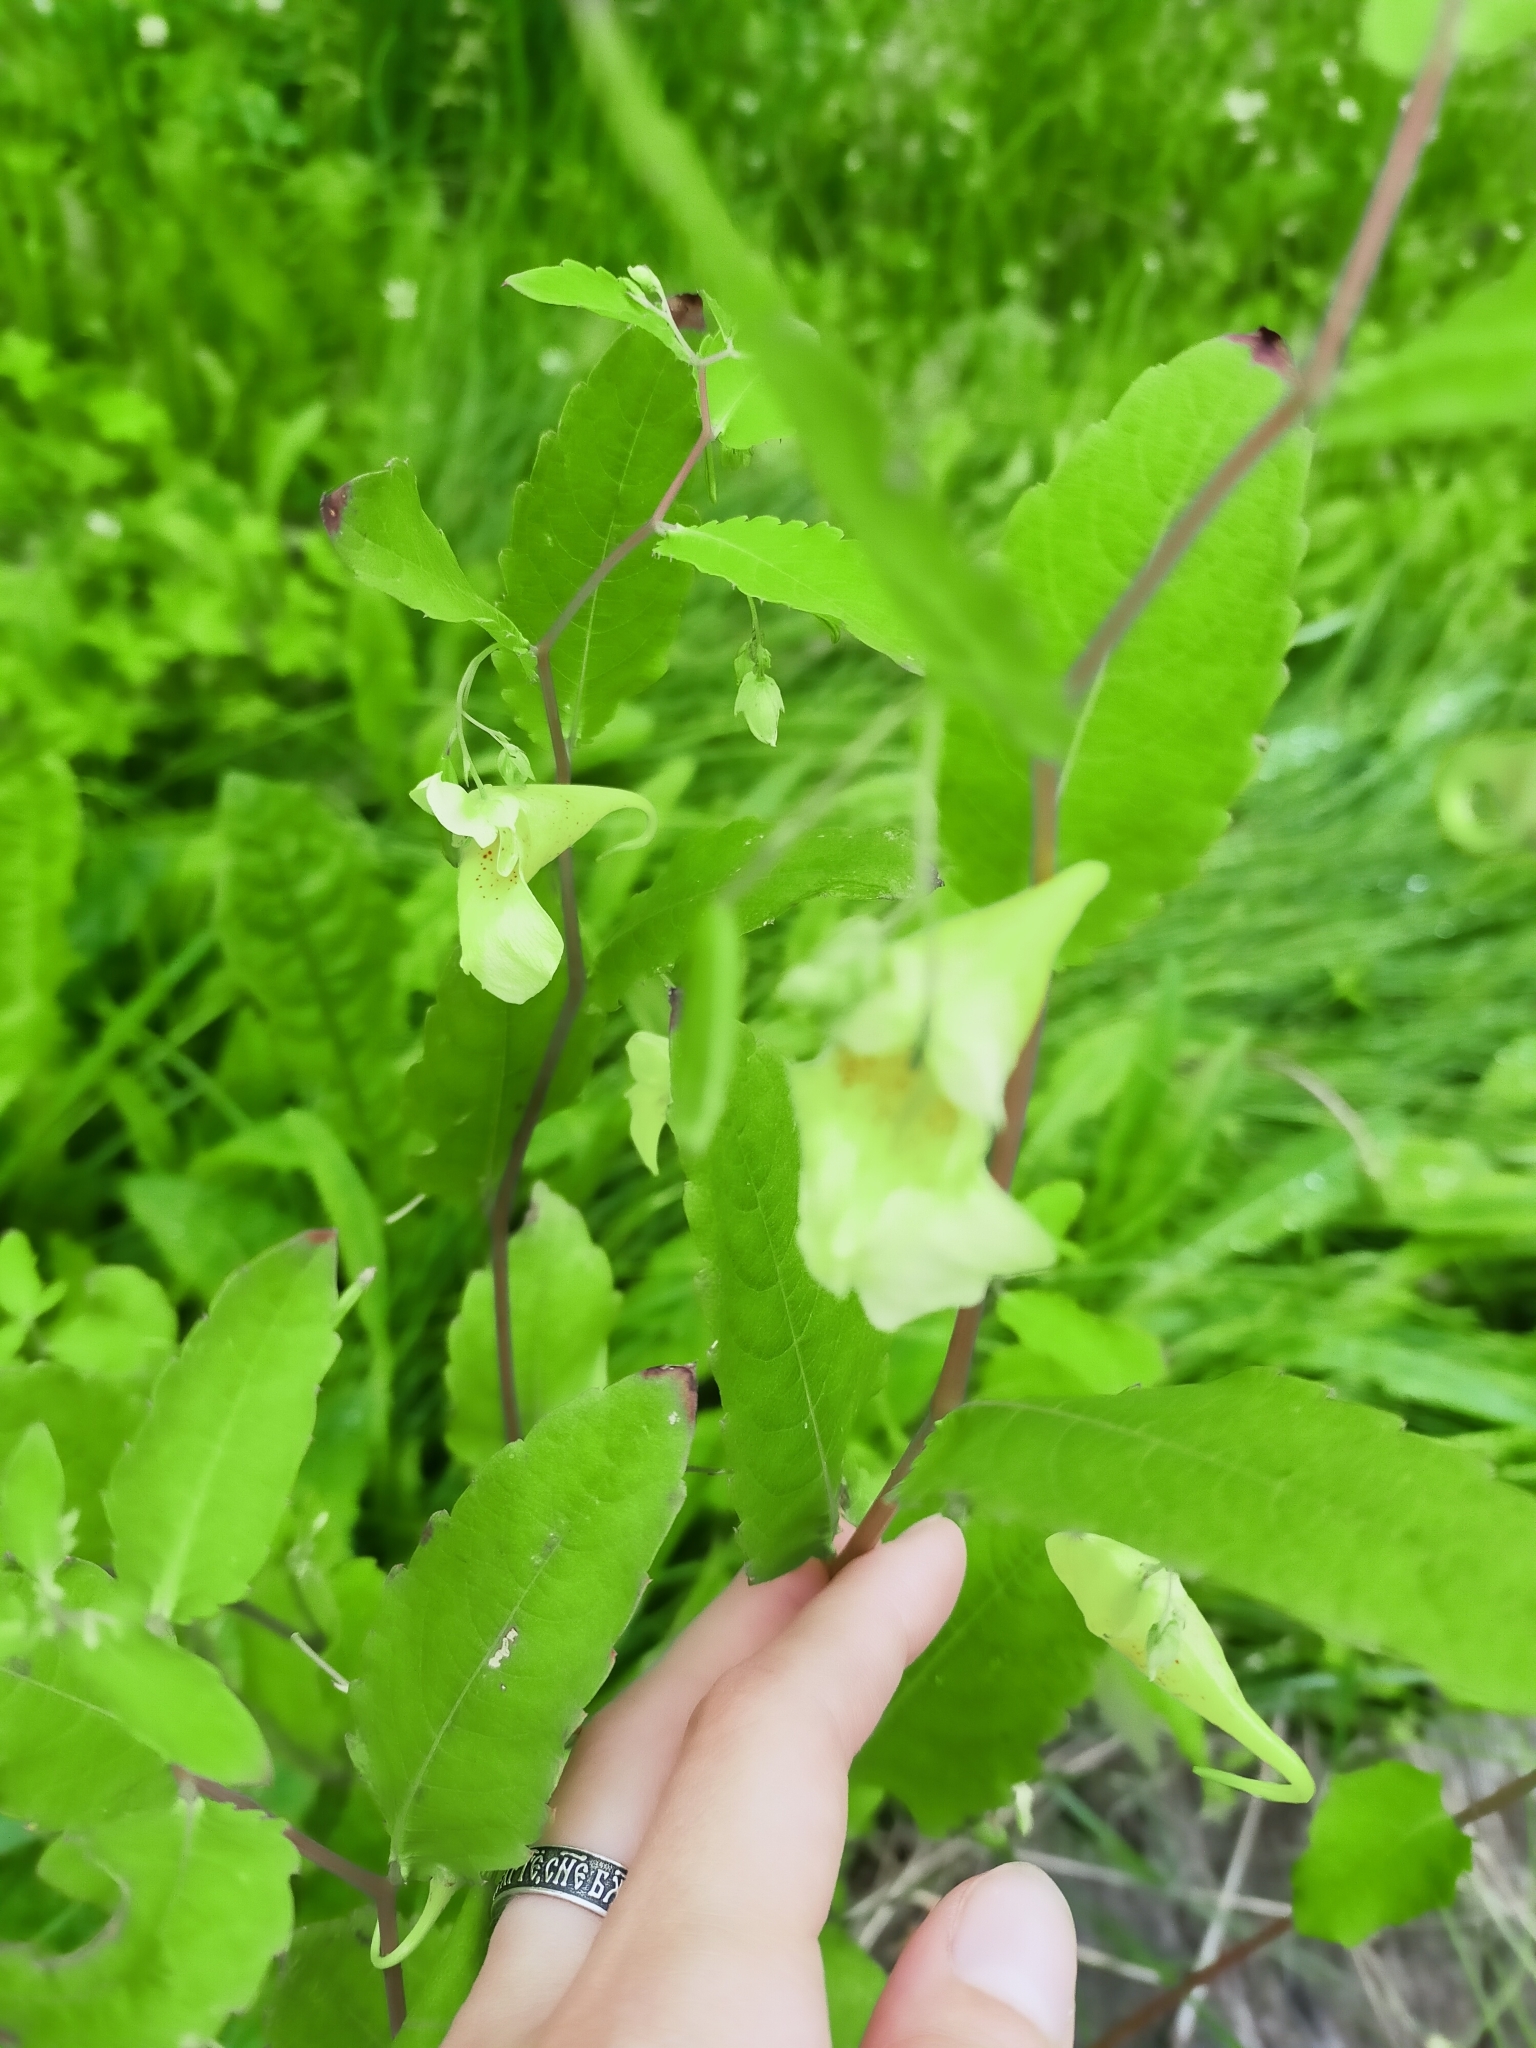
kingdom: Plantae
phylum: Tracheophyta
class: Magnoliopsida
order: Ericales
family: Balsaminaceae
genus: Impatiens
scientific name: Impatiens noli-tangere
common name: Touch-me-not balsam
